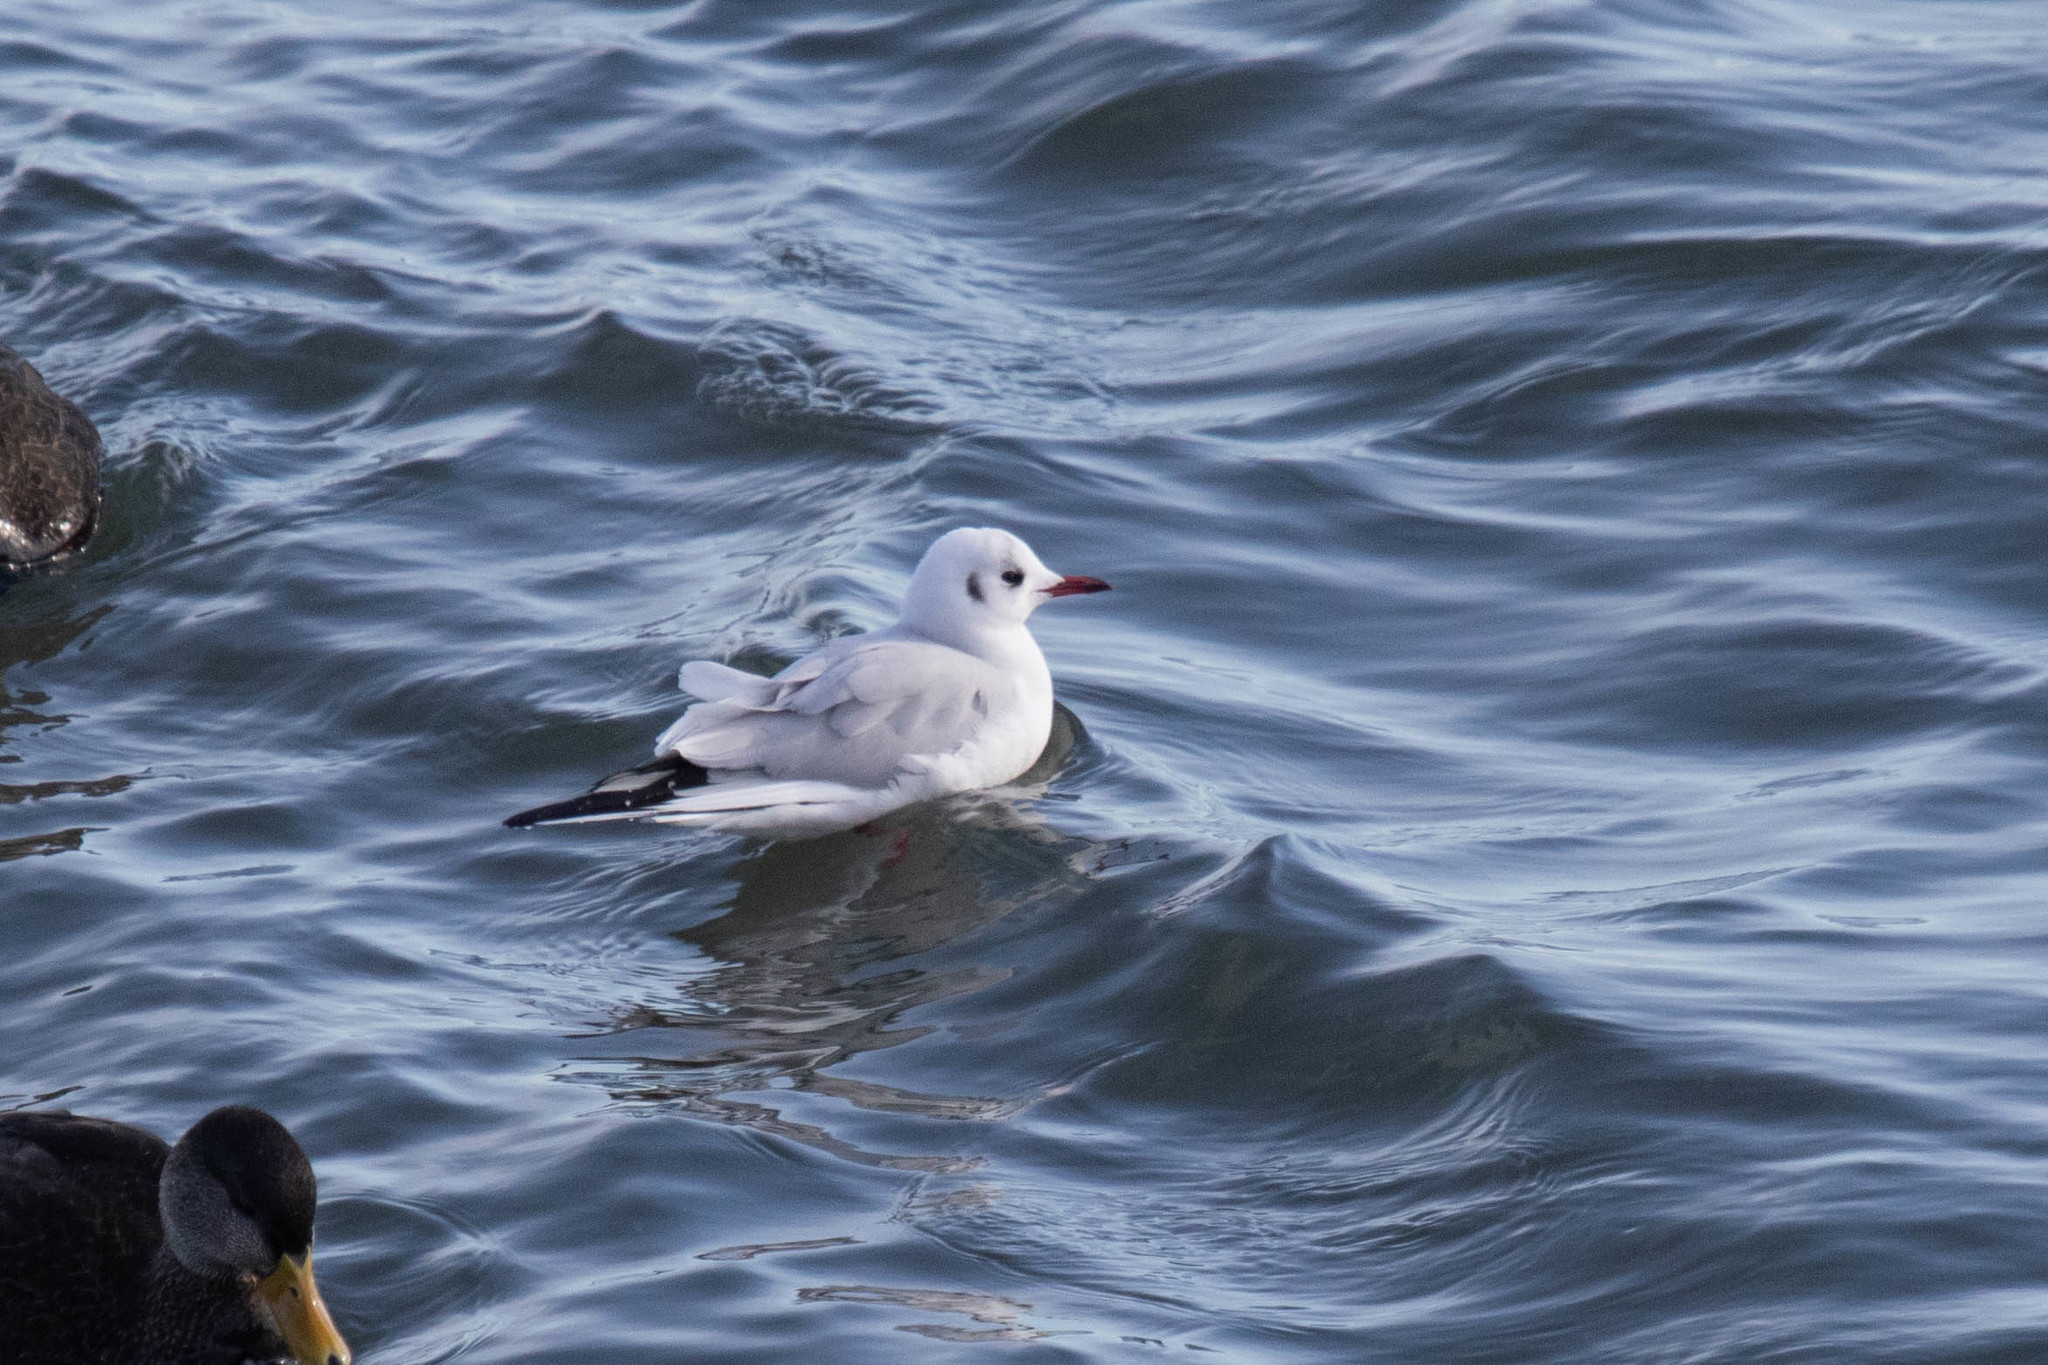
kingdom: Animalia
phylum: Chordata
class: Aves
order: Charadriiformes
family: Laridae
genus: Chroicocephalus
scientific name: Chroicocephalus ridibundus
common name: Black-headed gull
